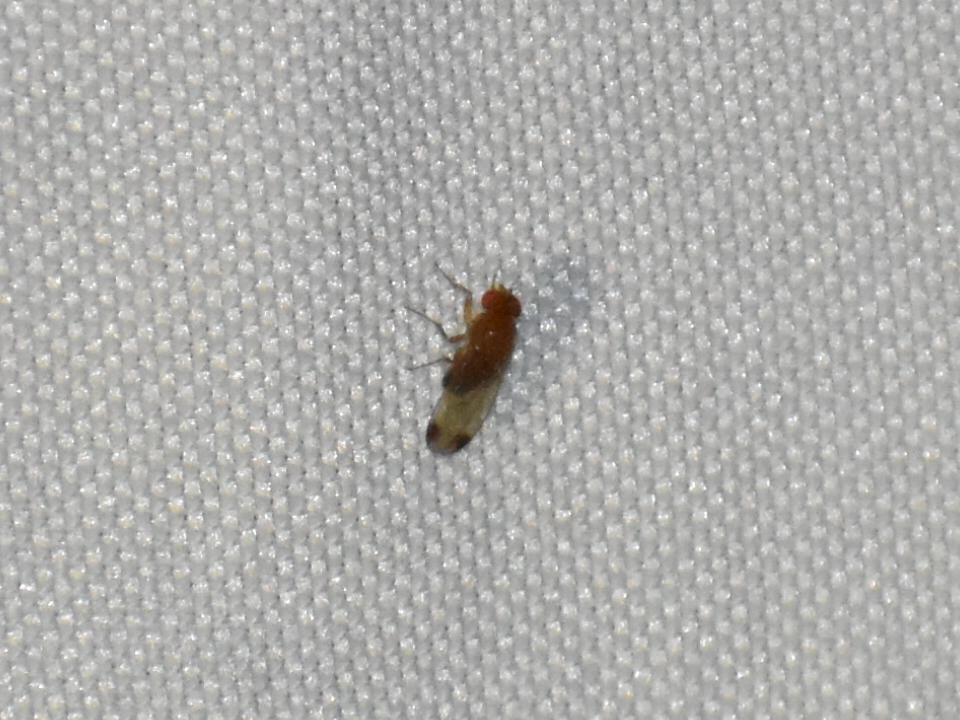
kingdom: Animalia
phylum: Arthropoda
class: Insecta
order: Diptera
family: Drosophilidae
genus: Drosophila
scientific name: Drosophila suzukii
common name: Spotted-wing drosophila
